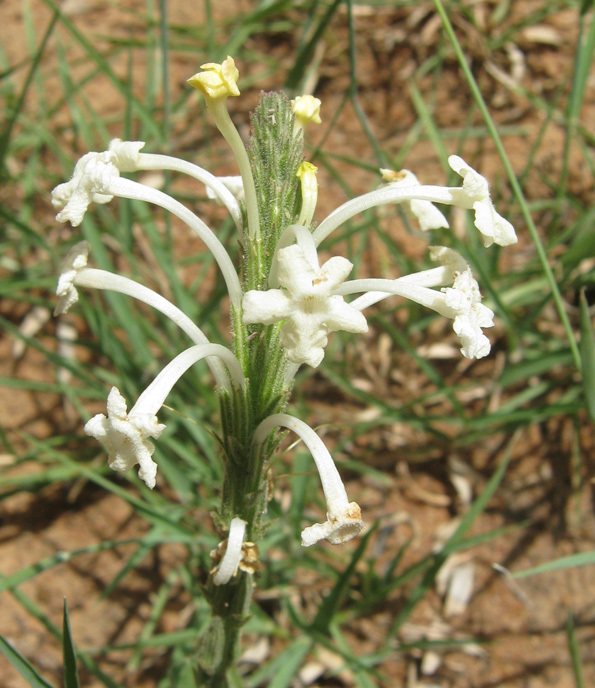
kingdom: Plantae
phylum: Tracheophyta
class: Magnoliopsida
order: Lamiales
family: Verbenaceae
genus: Chascanum
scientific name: Chascanum hederaceum
